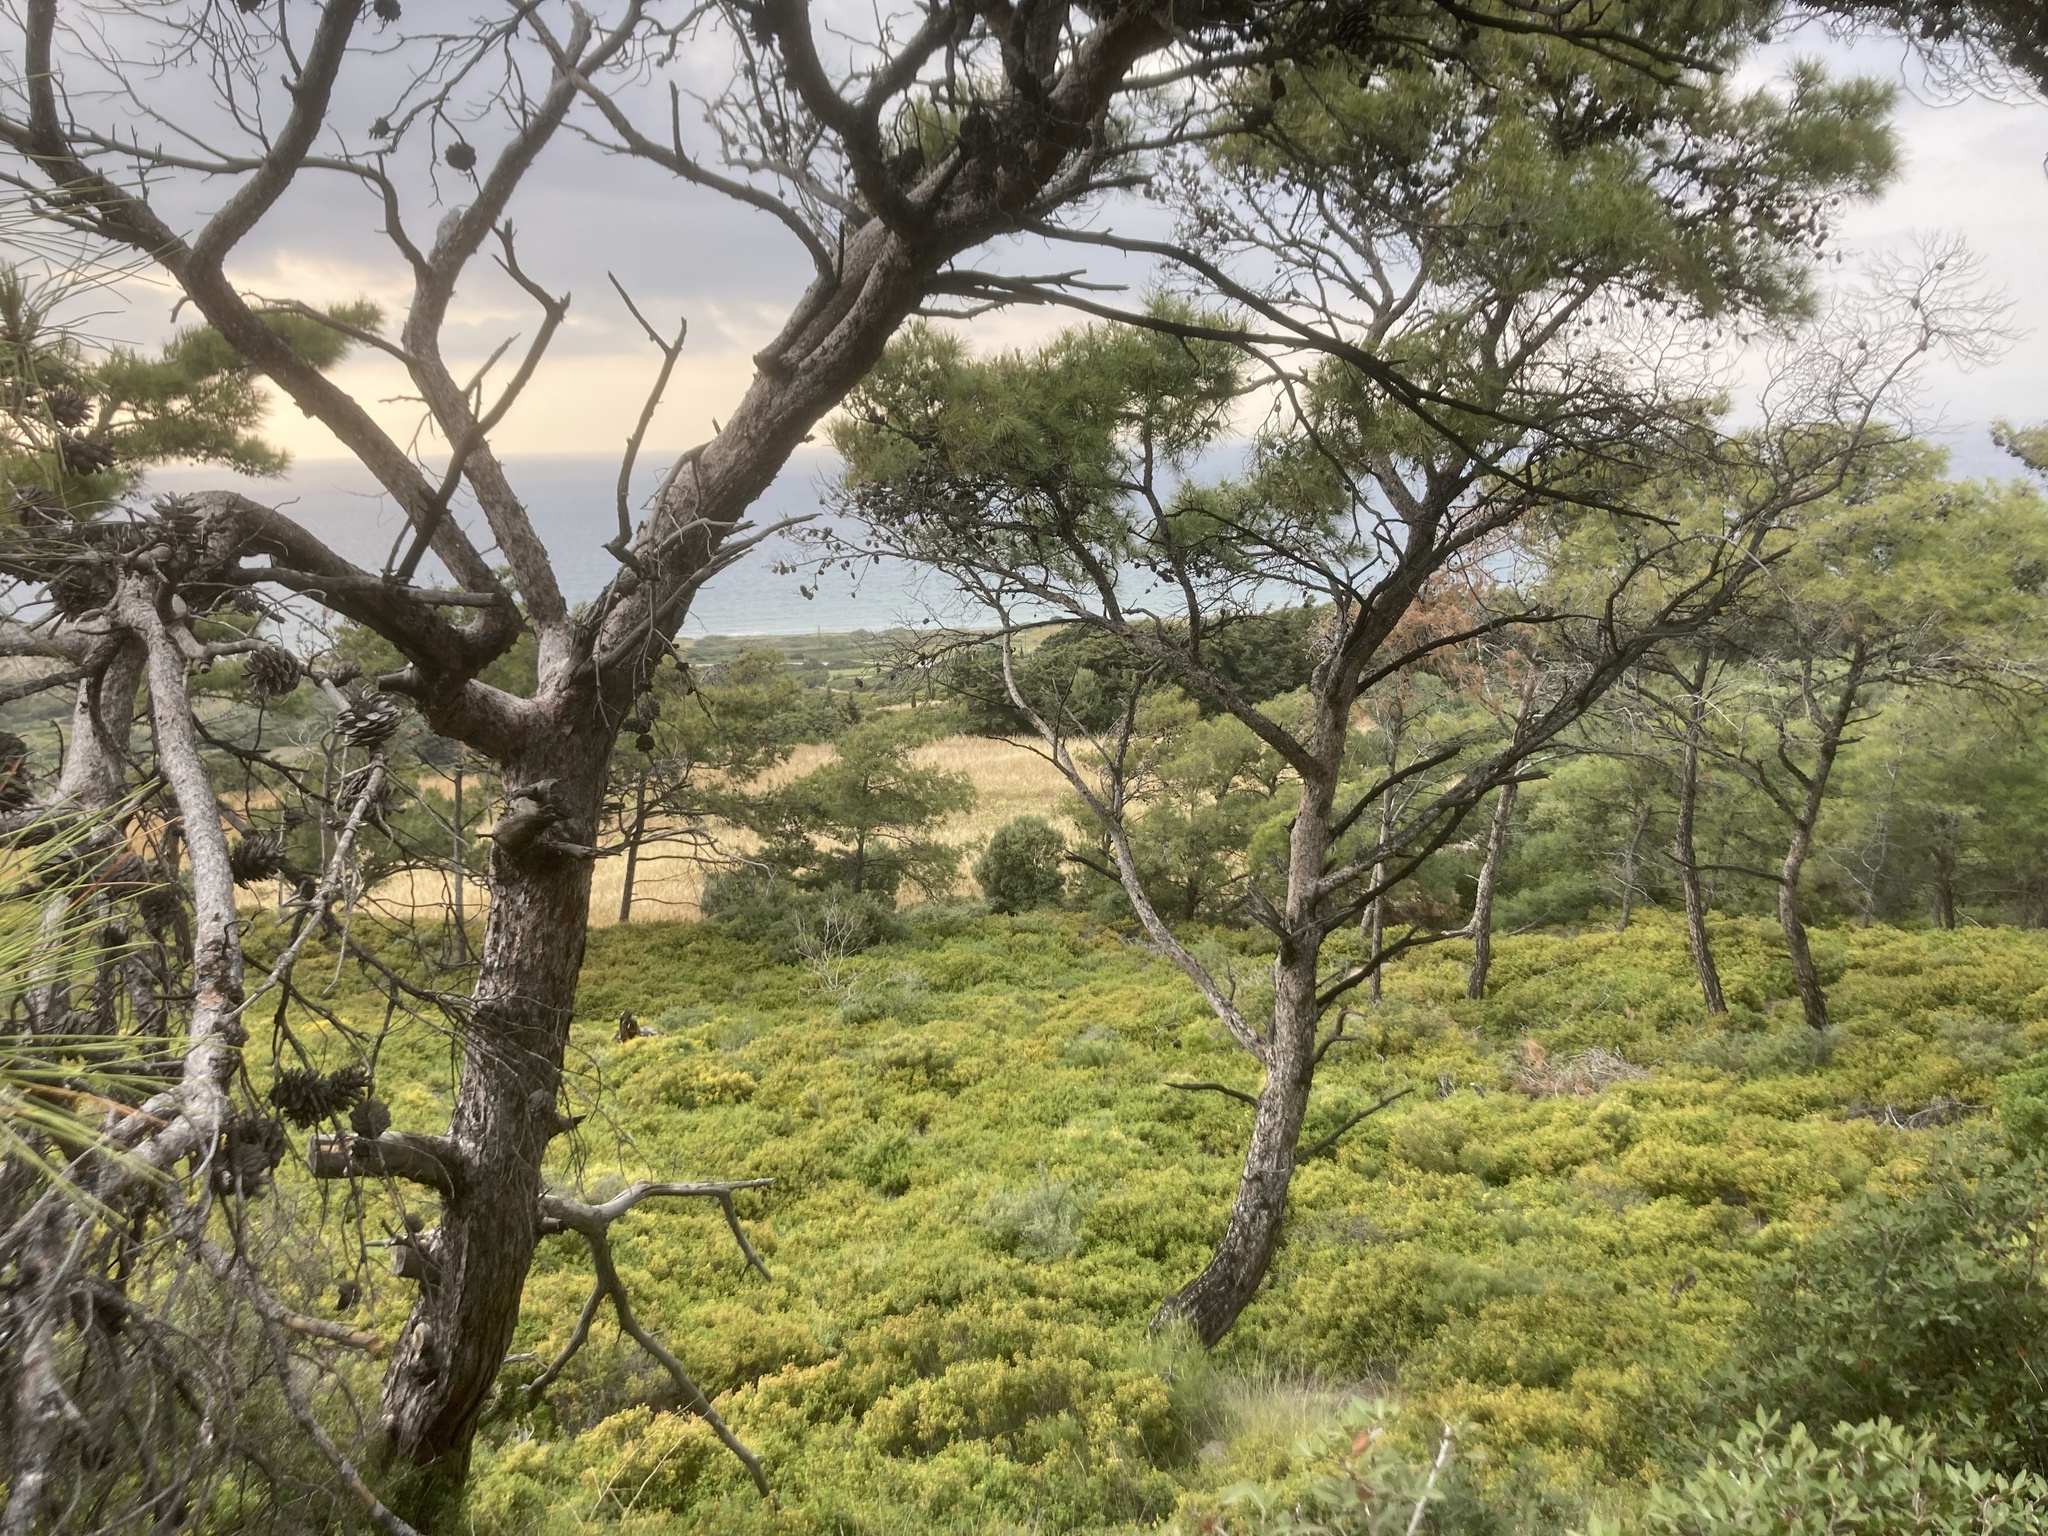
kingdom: Plantae
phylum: Tracheophyta
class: Pinopsida
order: Pinales
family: Pinaceae
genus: Pinus
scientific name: Pinus brutia
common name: Turkish pine
